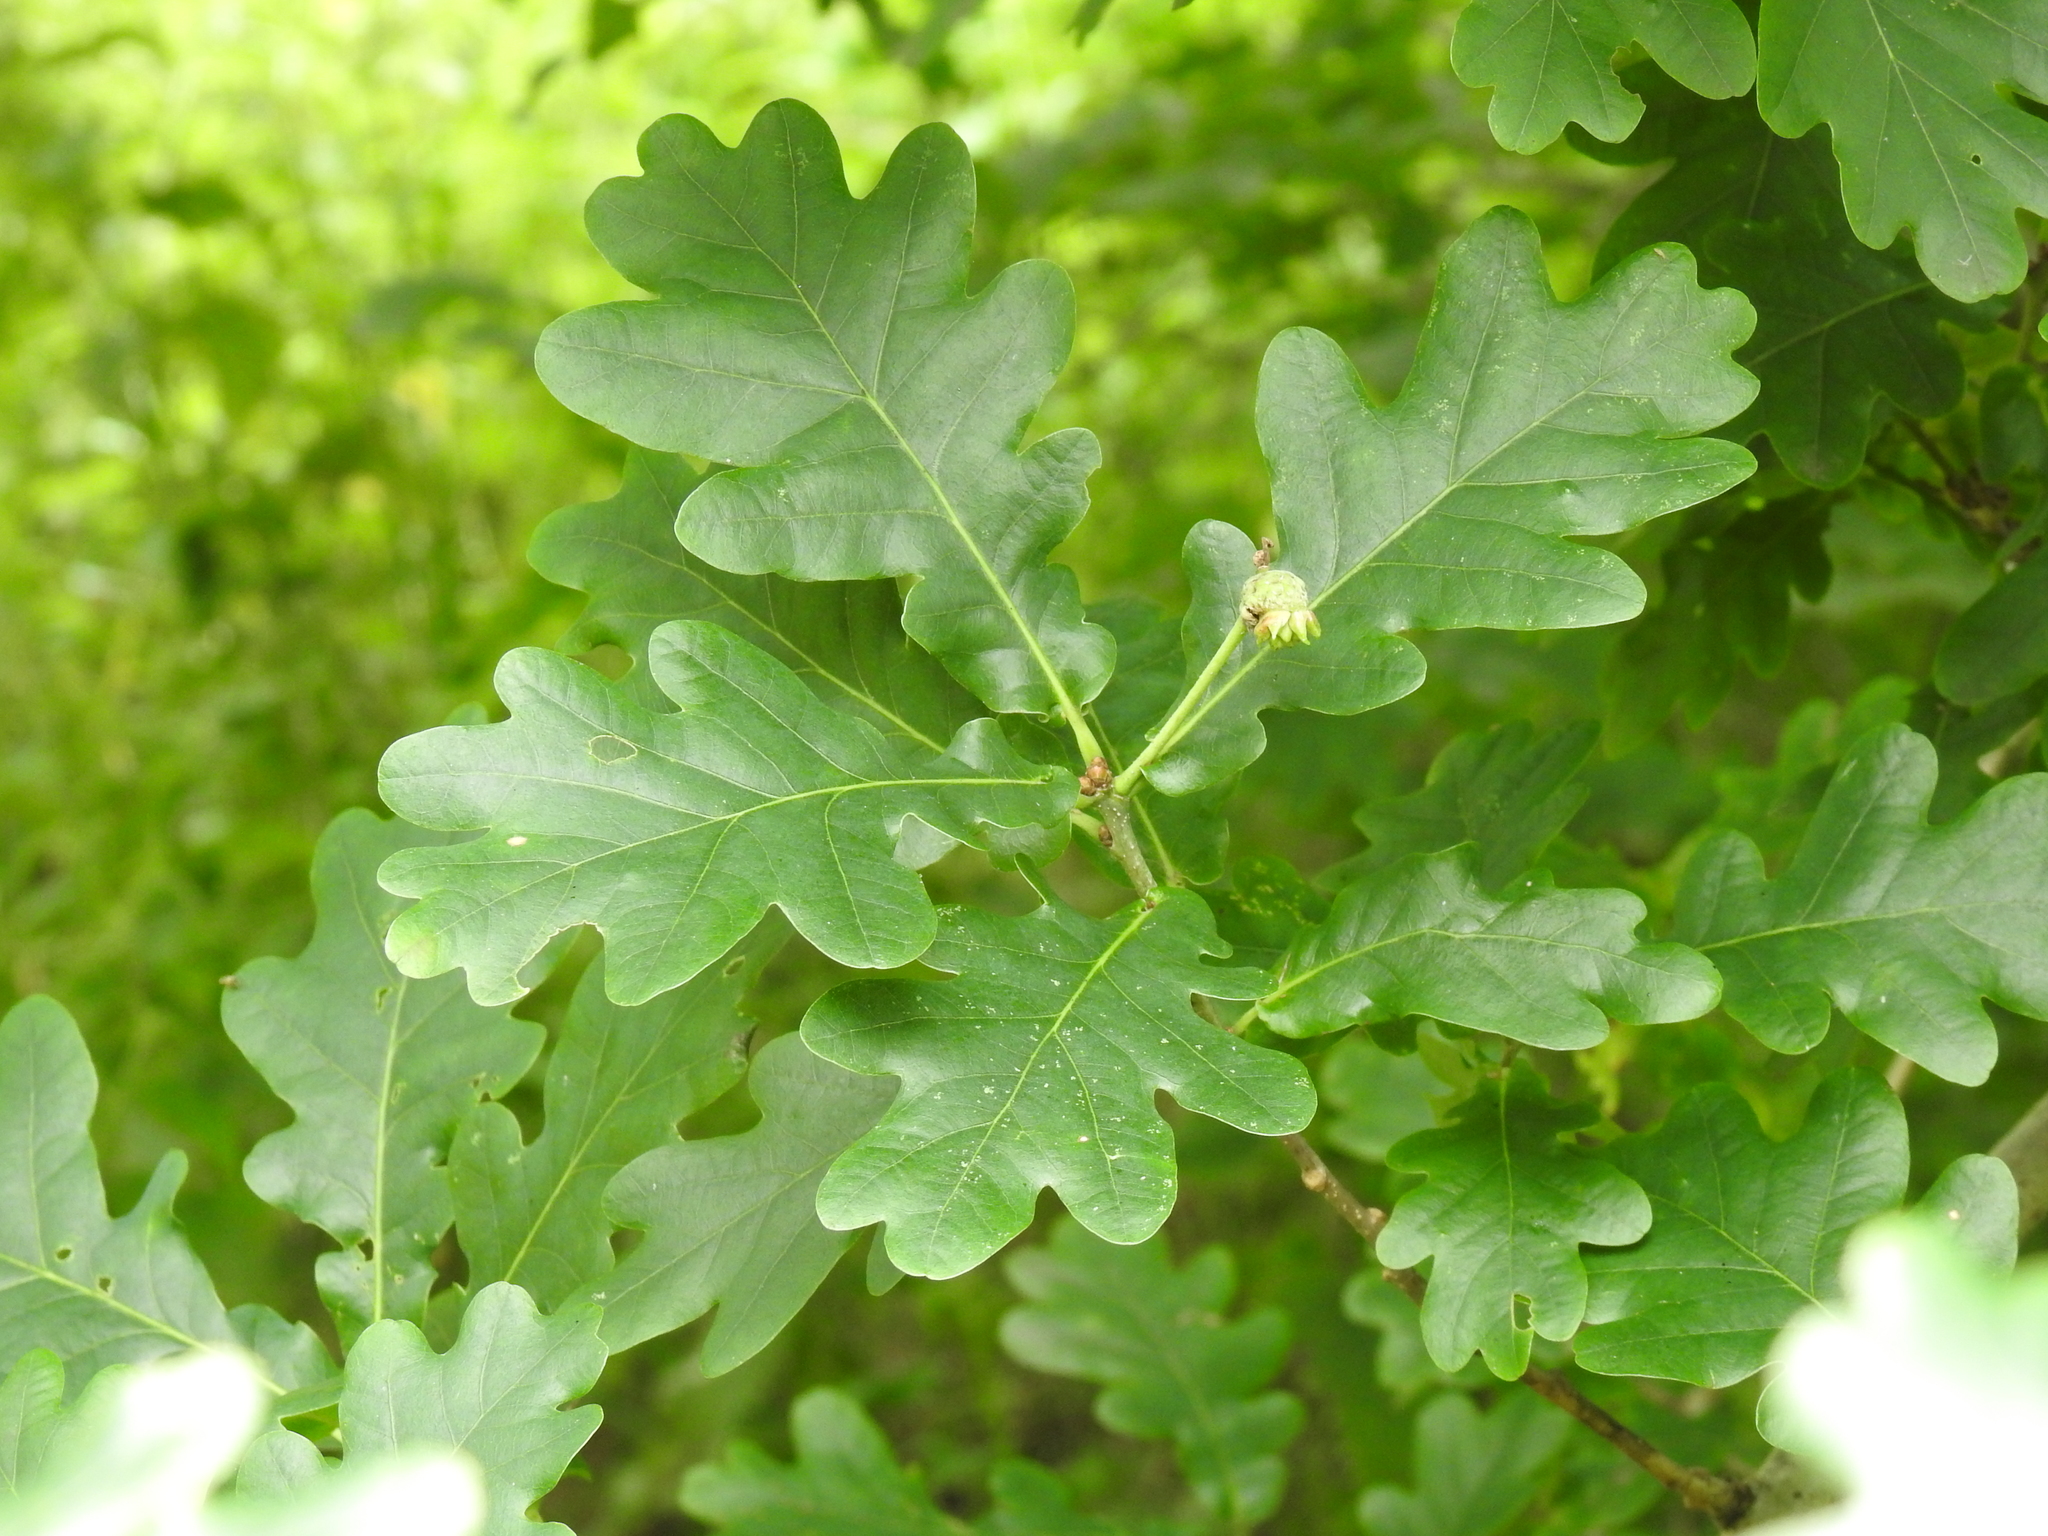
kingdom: Plantae
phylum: Tracheophyta
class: Magnoliopsida
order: Fagales
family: Fagaceae
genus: Quercus
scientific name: Quercus robur
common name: Pedunculate oak
